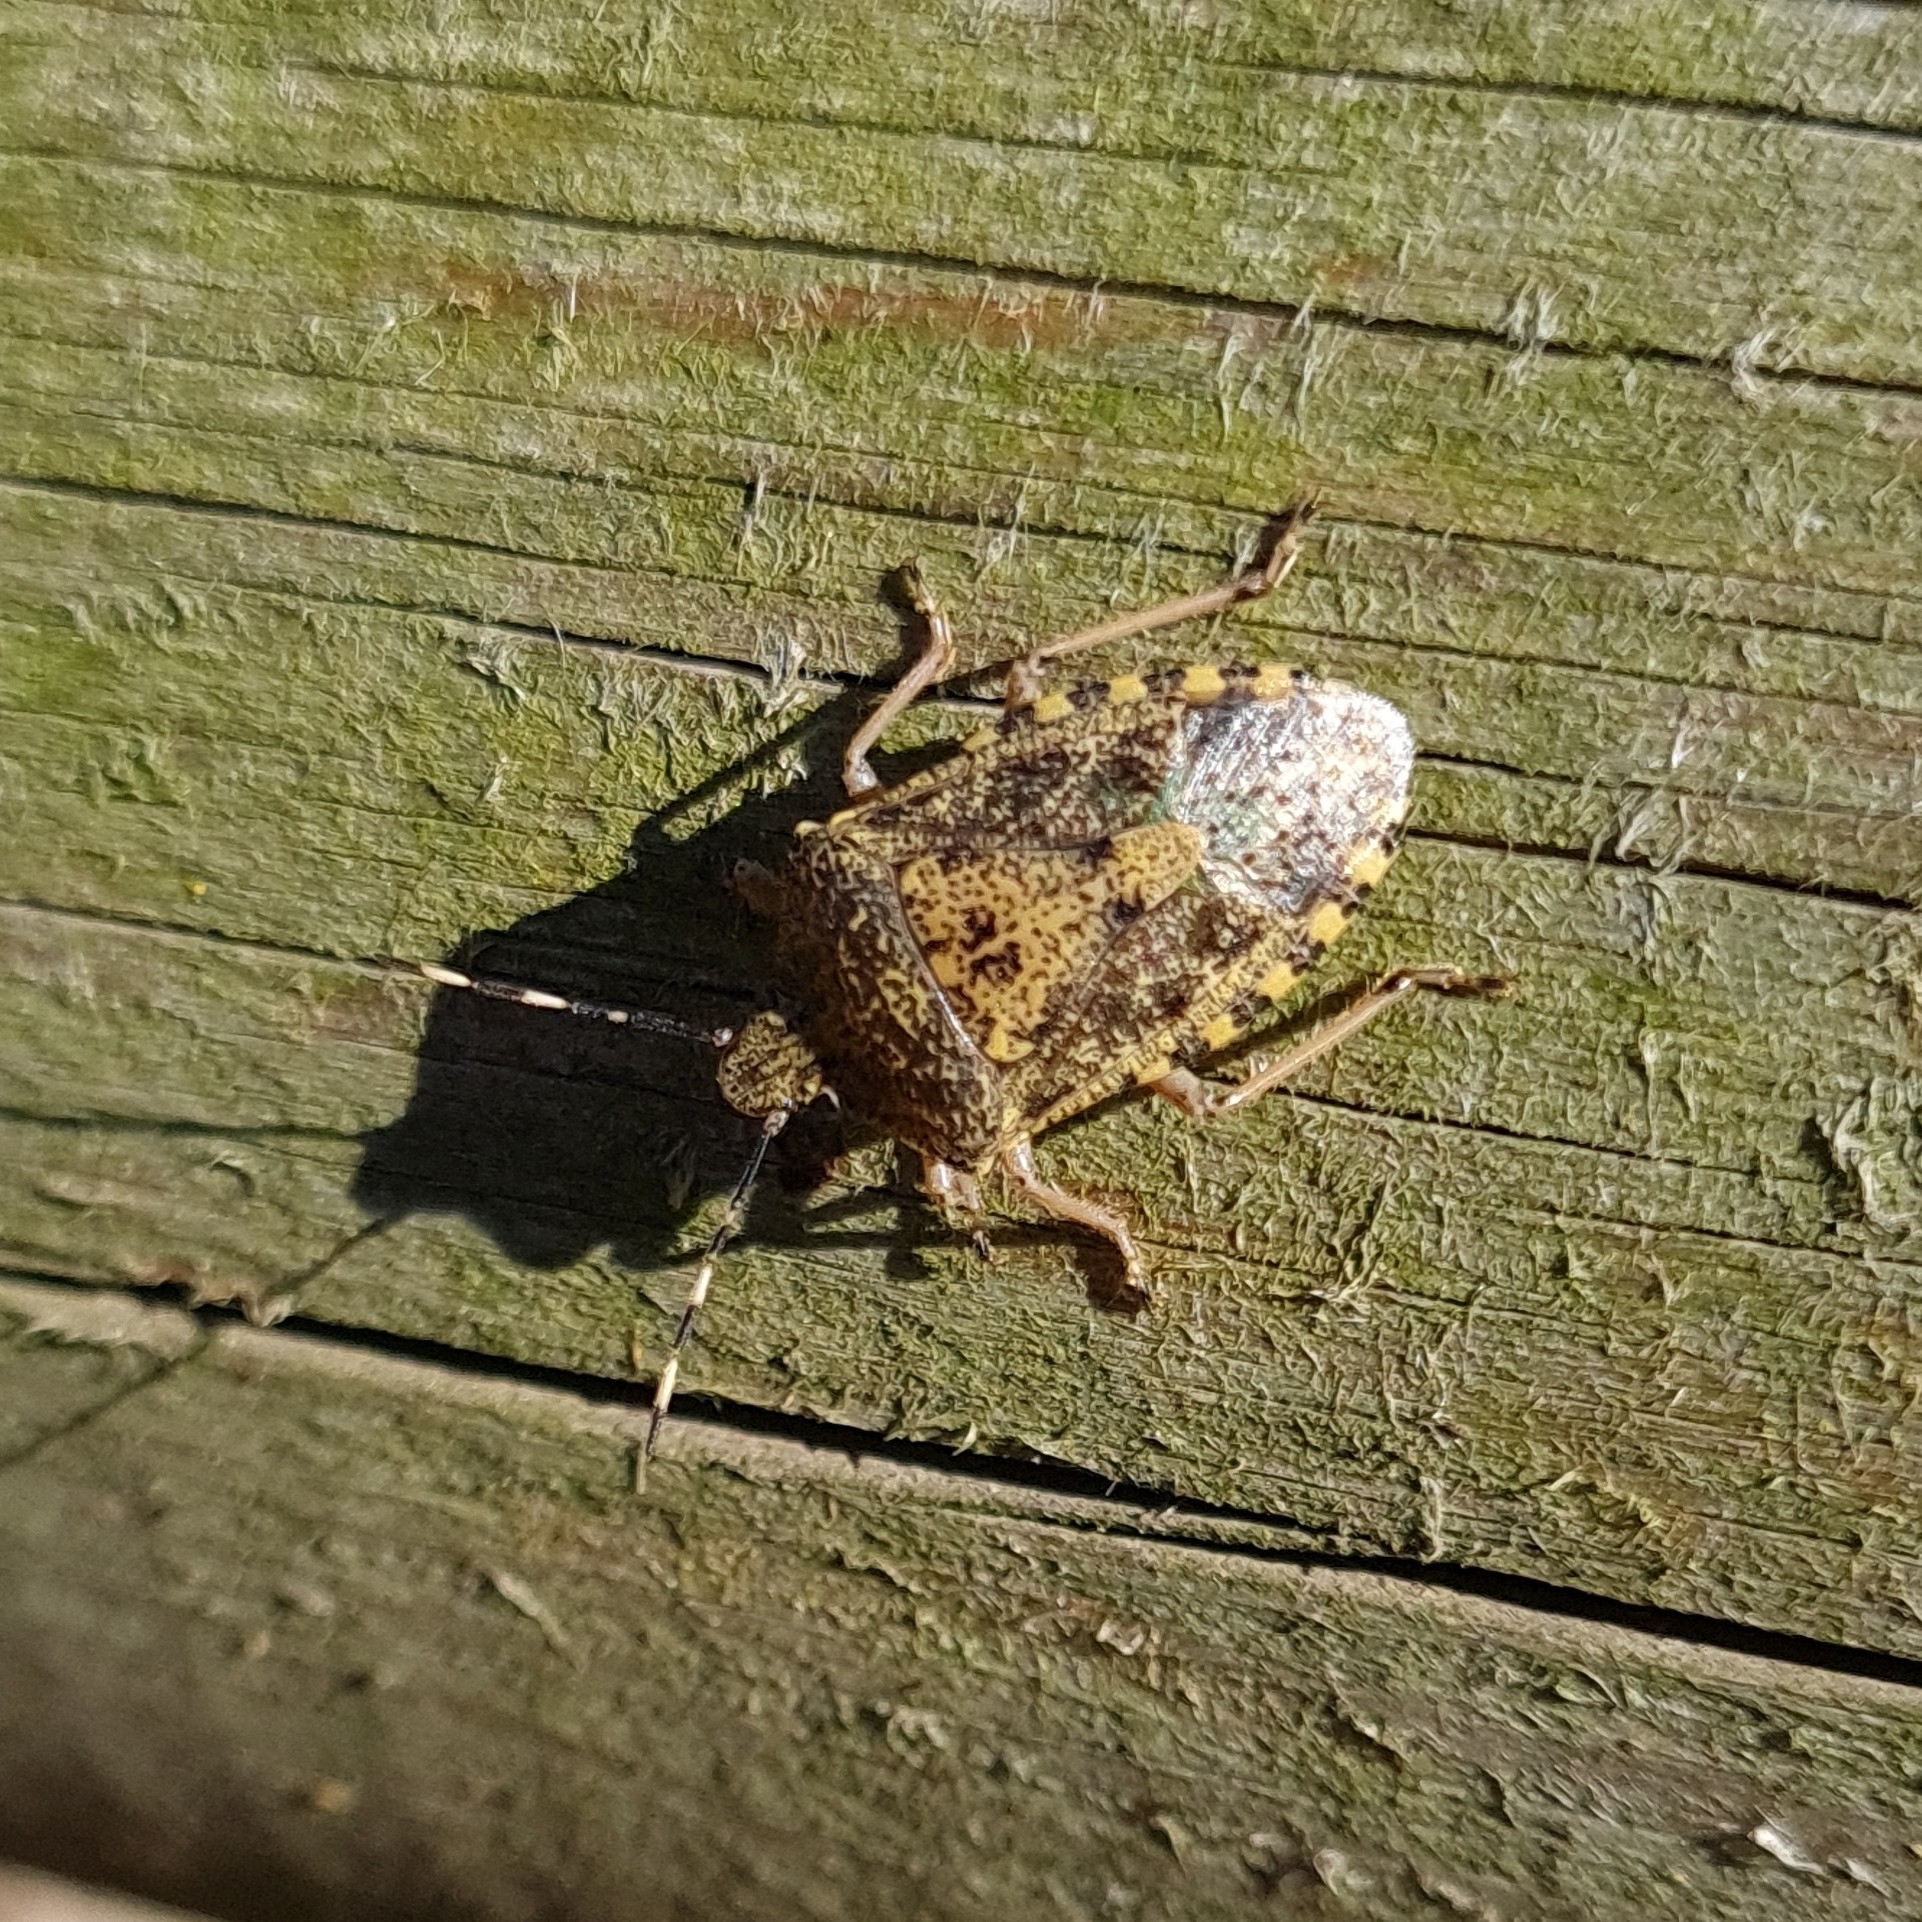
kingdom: Animalia
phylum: Arthropoda
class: Insecta
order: Hemiptera
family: Pentatomidae
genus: Rhaphigaster
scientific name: Rhaphigaster nebulosa
